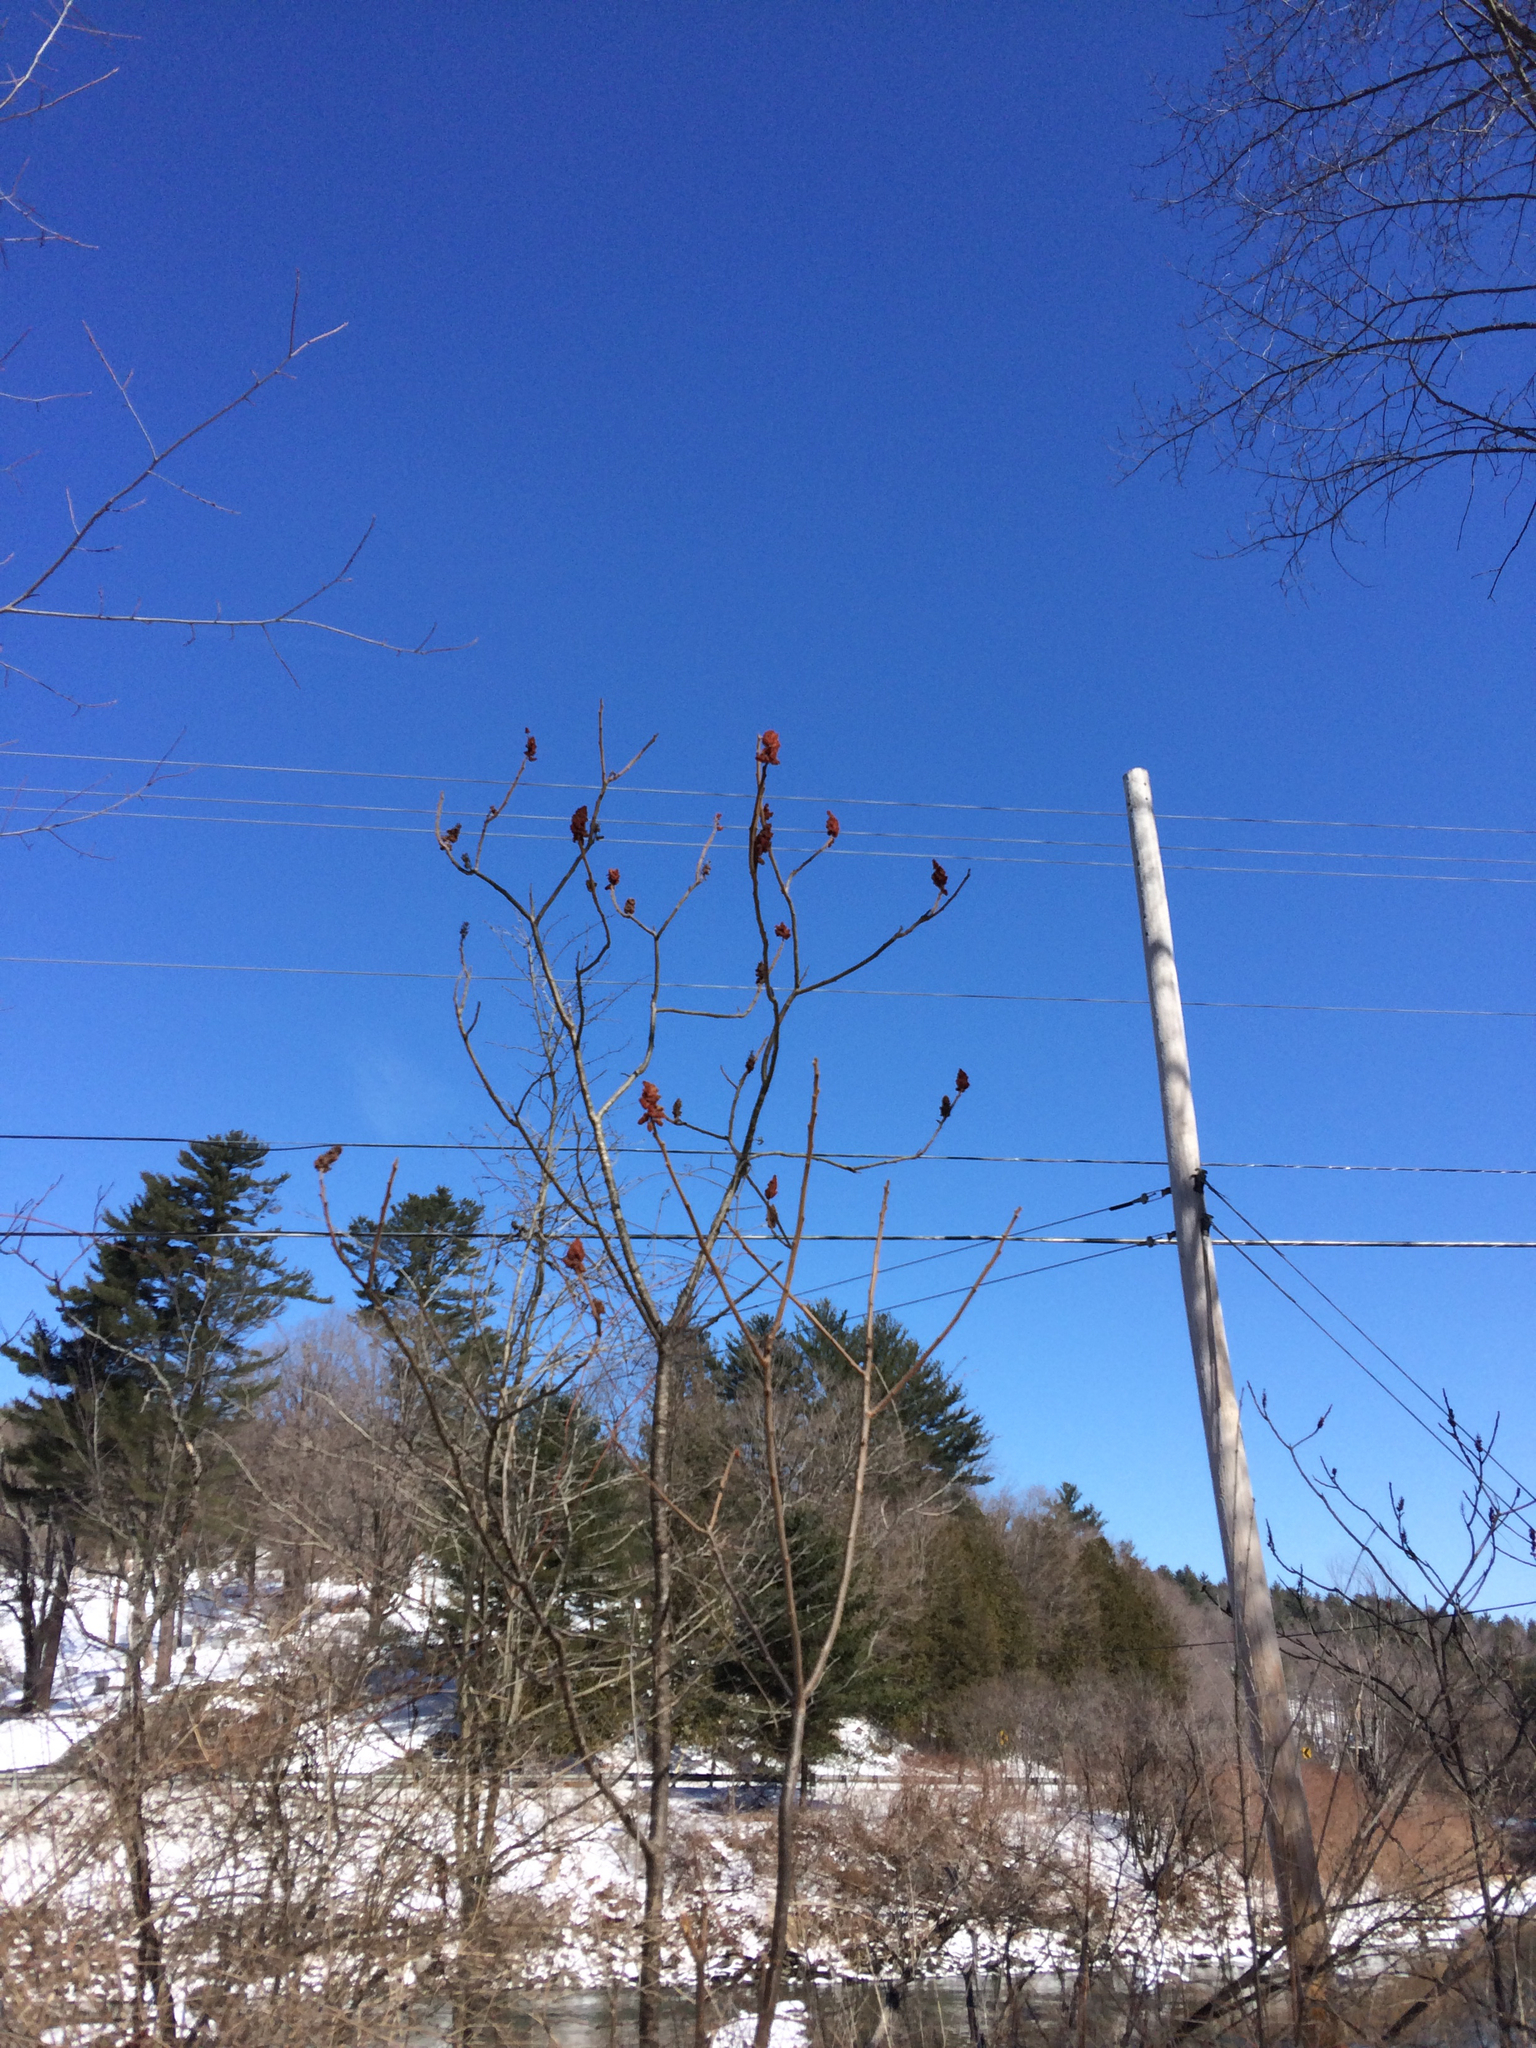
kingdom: Plantae
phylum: Tracheophyta
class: Magnoliopsida
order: Sapindales
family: Anacardiaceae
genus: Rhus
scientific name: Rhus typhina
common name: Staghorn sumac
